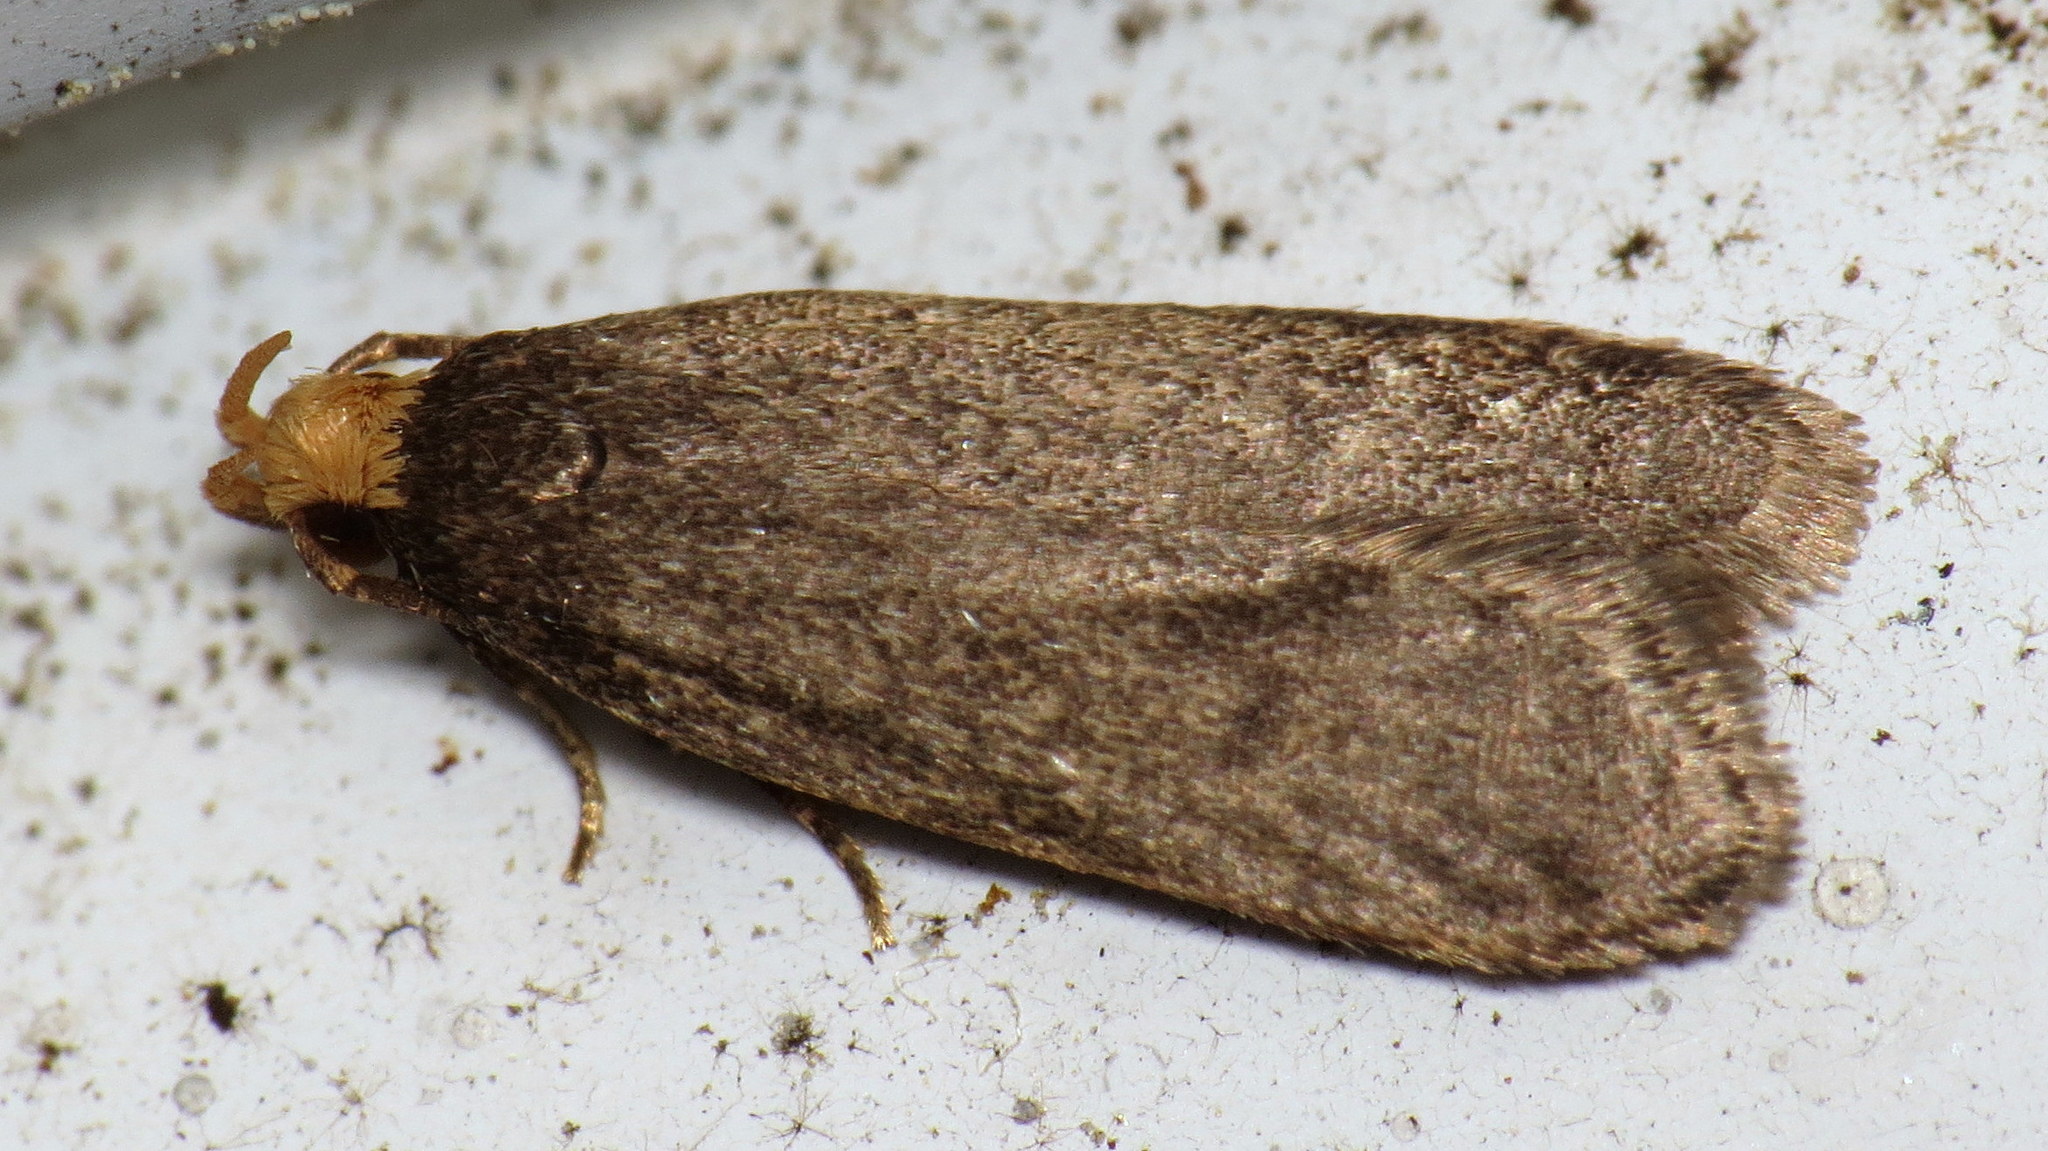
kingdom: Animalia
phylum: Arthropoda
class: Insecta
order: Lepidoptera
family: Autostichidae
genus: Glyphidocera
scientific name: Glyphidocera lithodoxa
